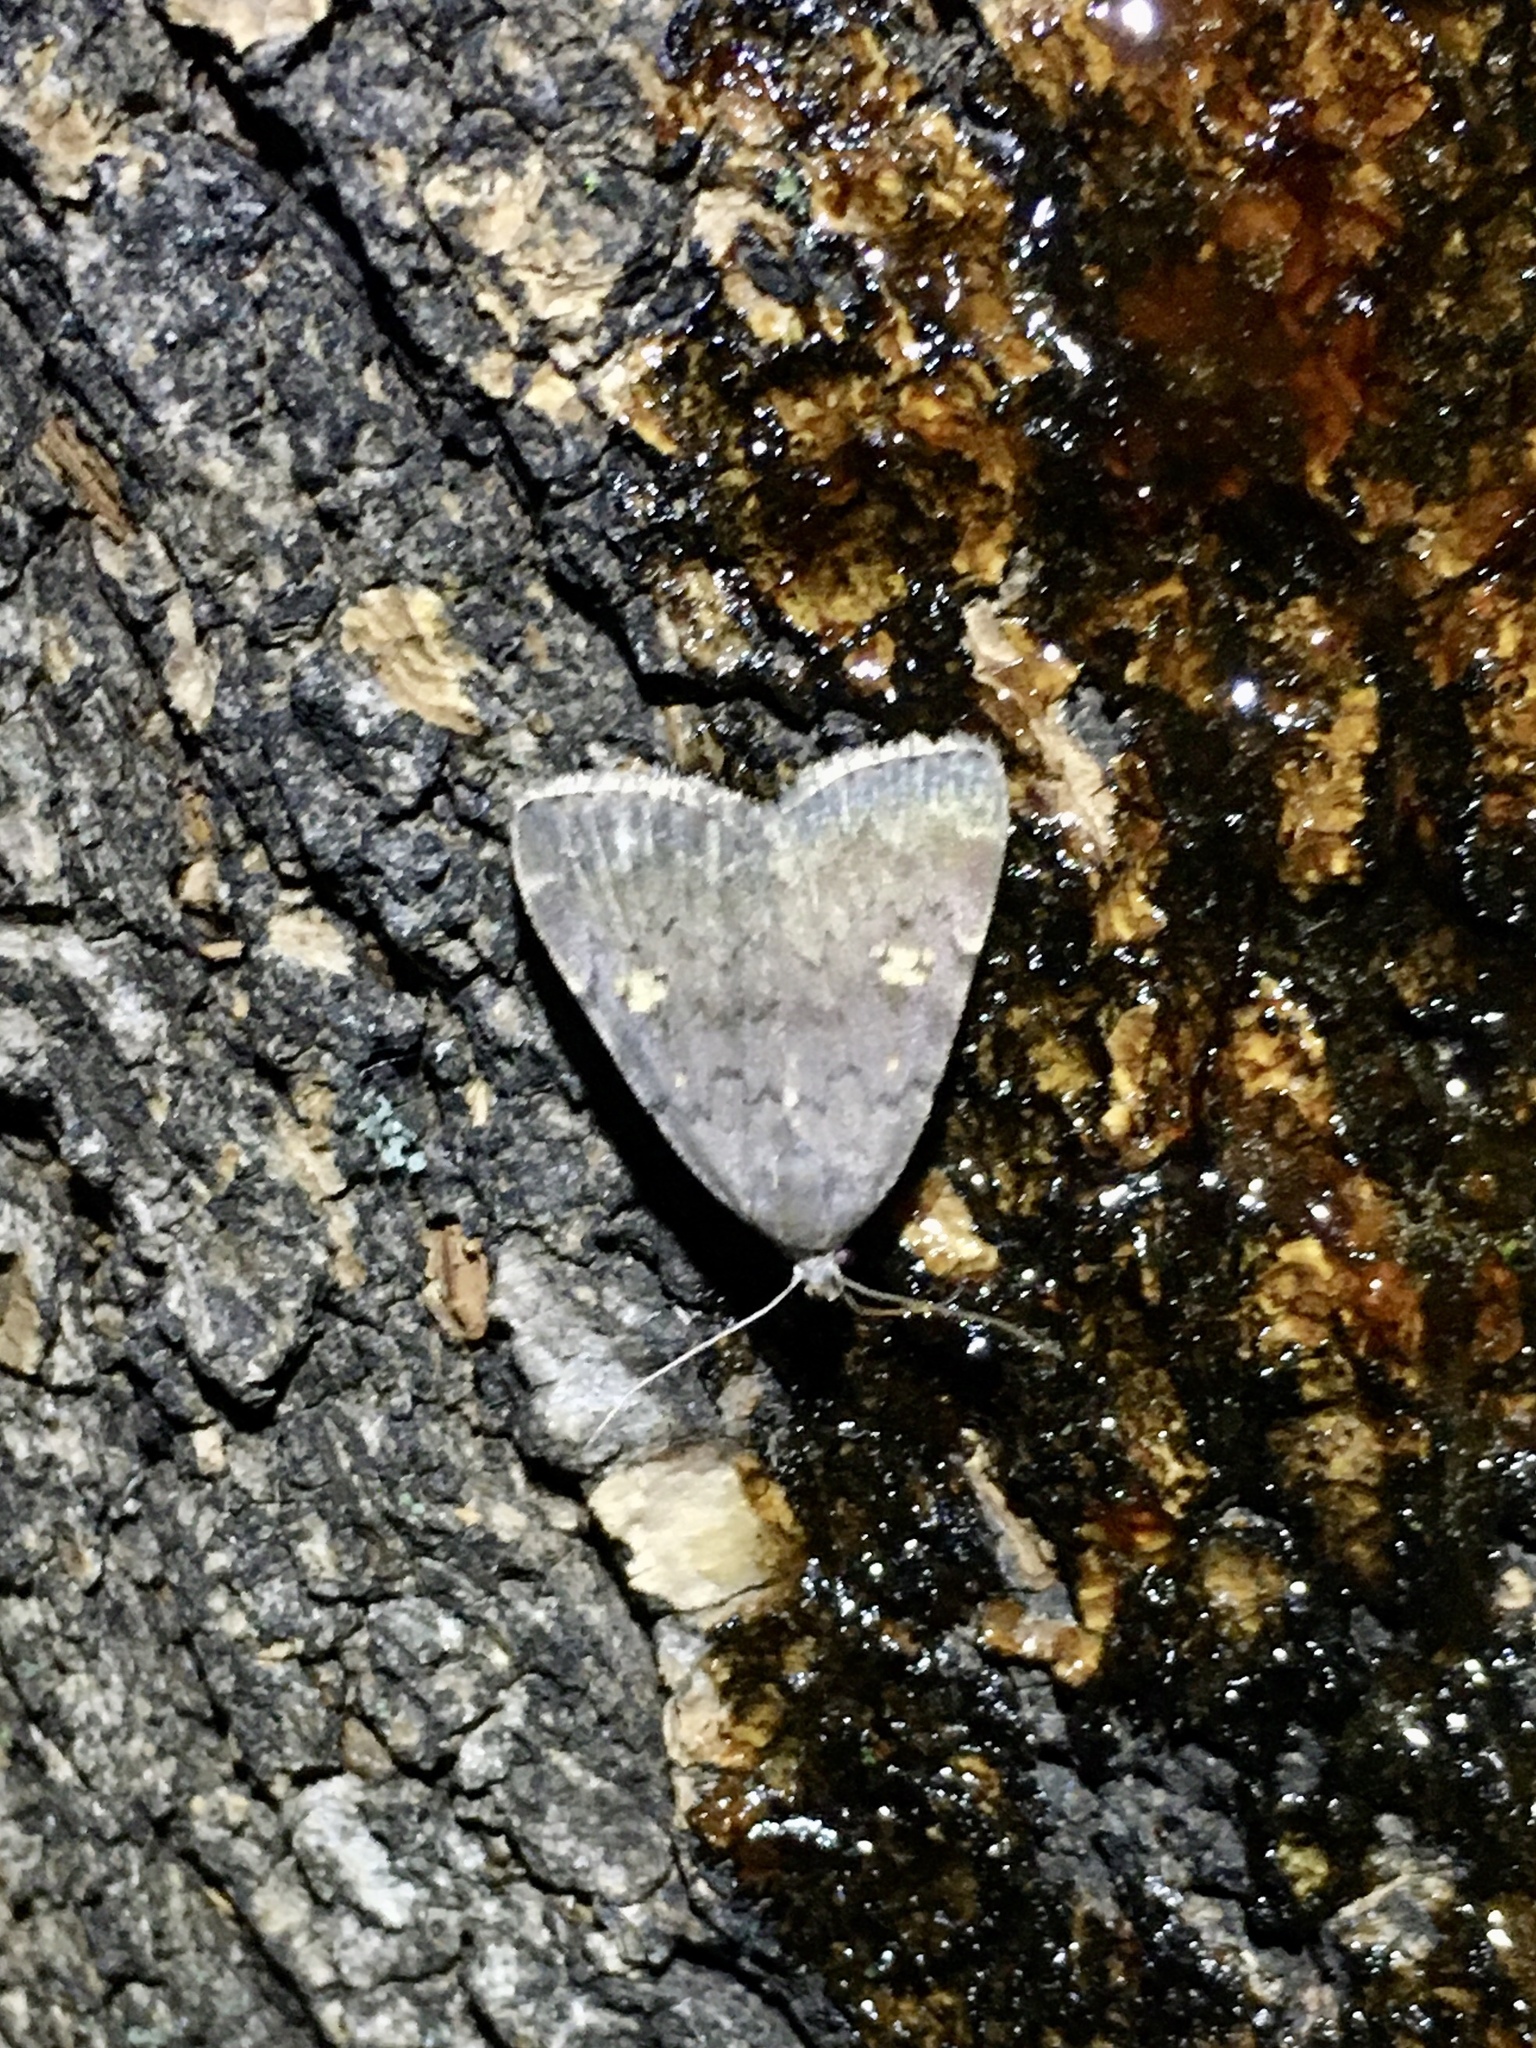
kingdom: Animalia
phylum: Arthropoda
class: Insecta
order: Lepidoptera
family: Erebidae
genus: Idia
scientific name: Idia aemula
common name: Common idia moth
